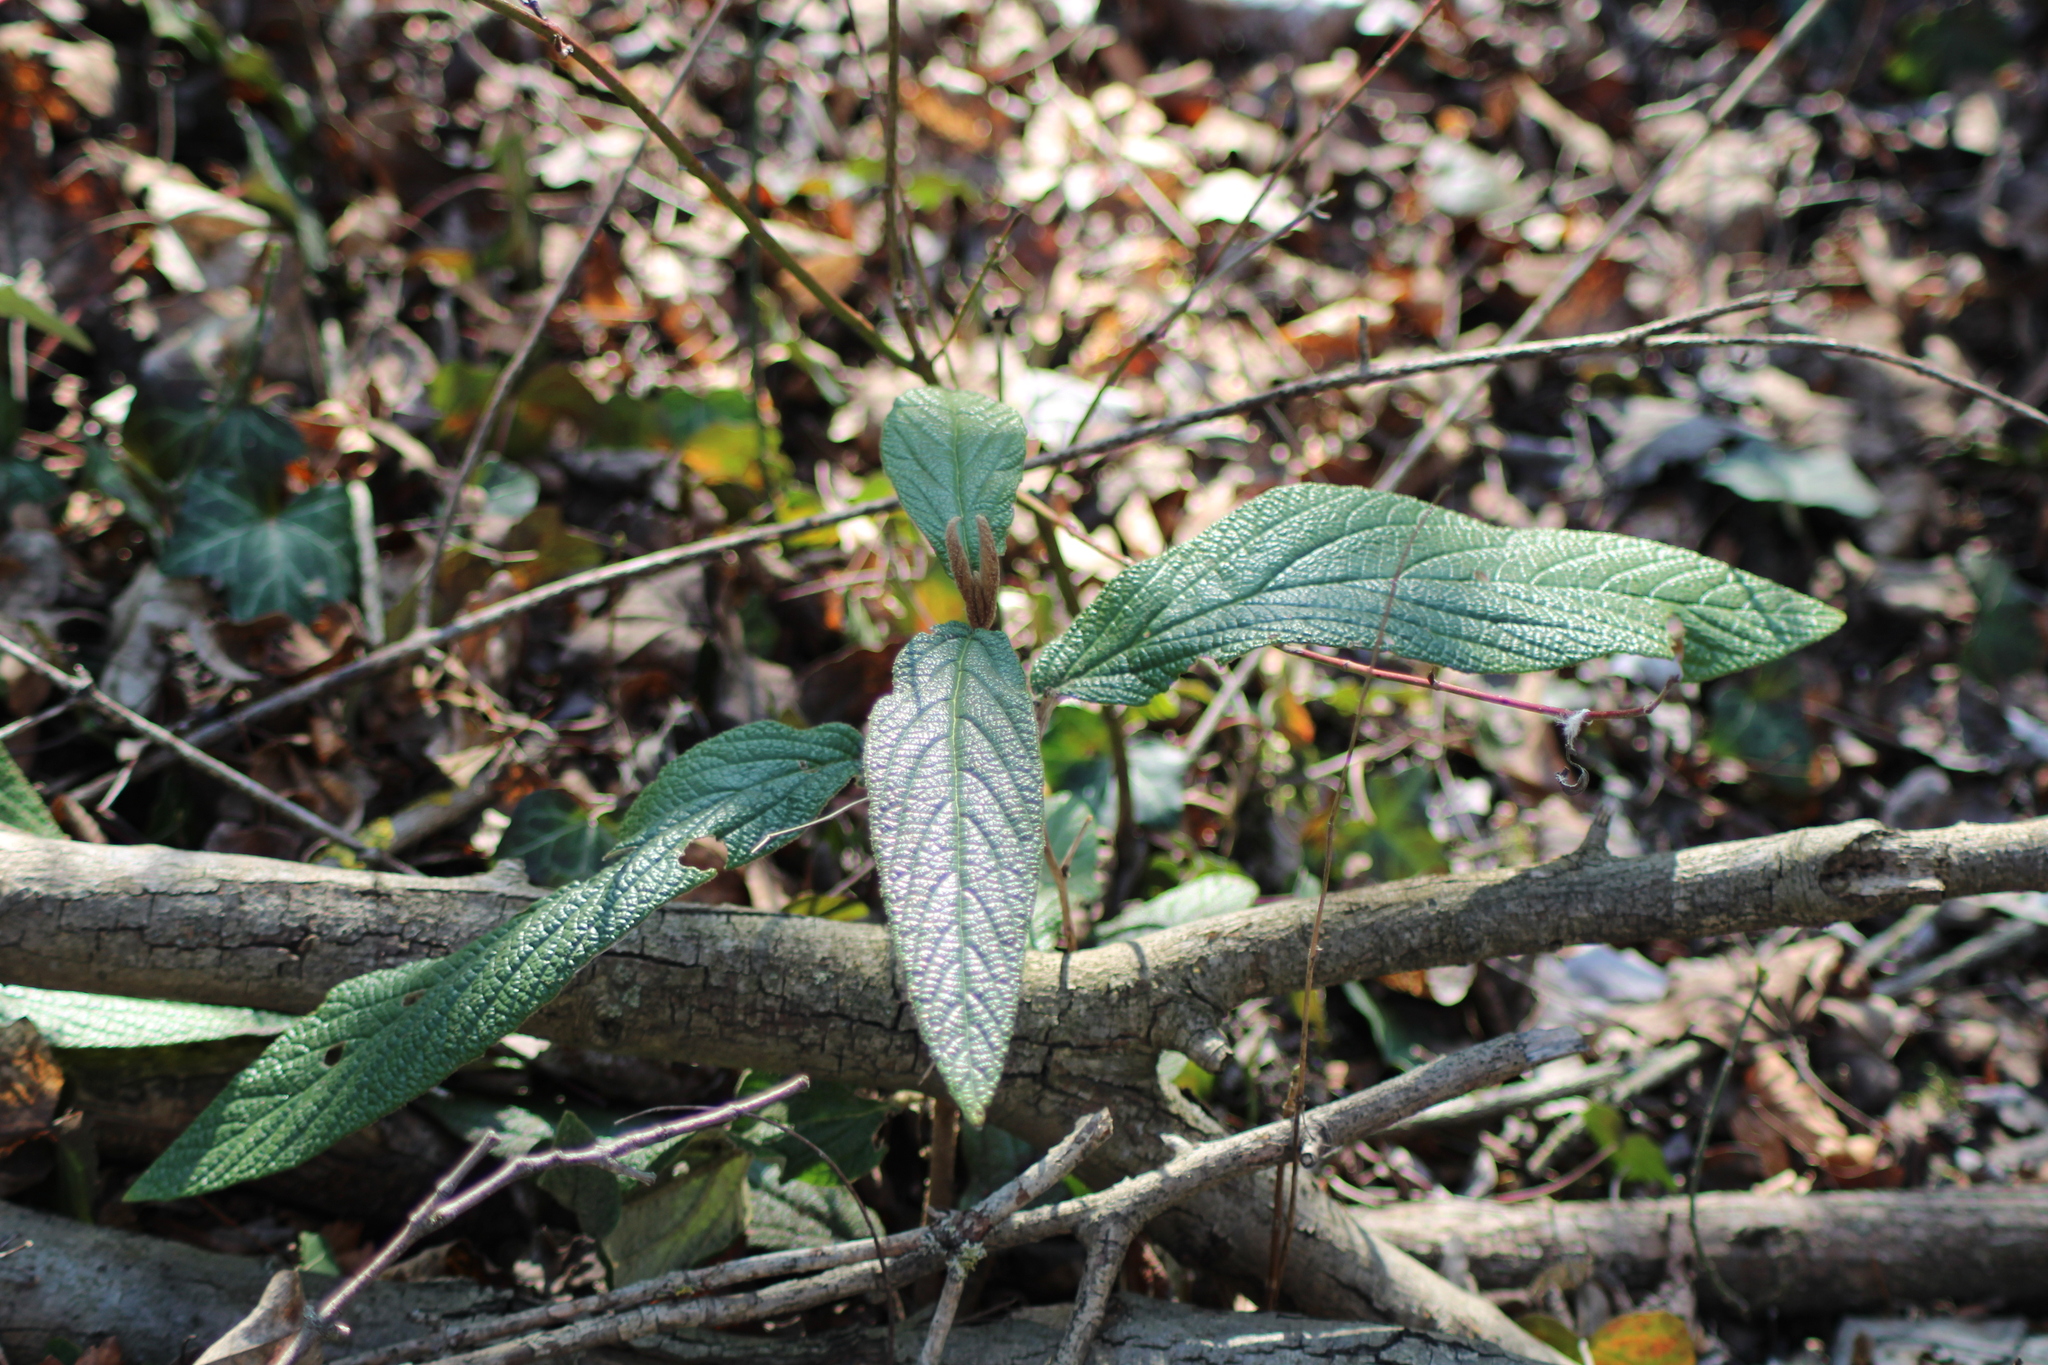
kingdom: Plantae
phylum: Tracheophyta
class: Magnoliopsida
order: Dipsacales
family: Viburnaceae
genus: Viburnum
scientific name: Viburnum rhytidophyllum
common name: Wrinkled viburnum
